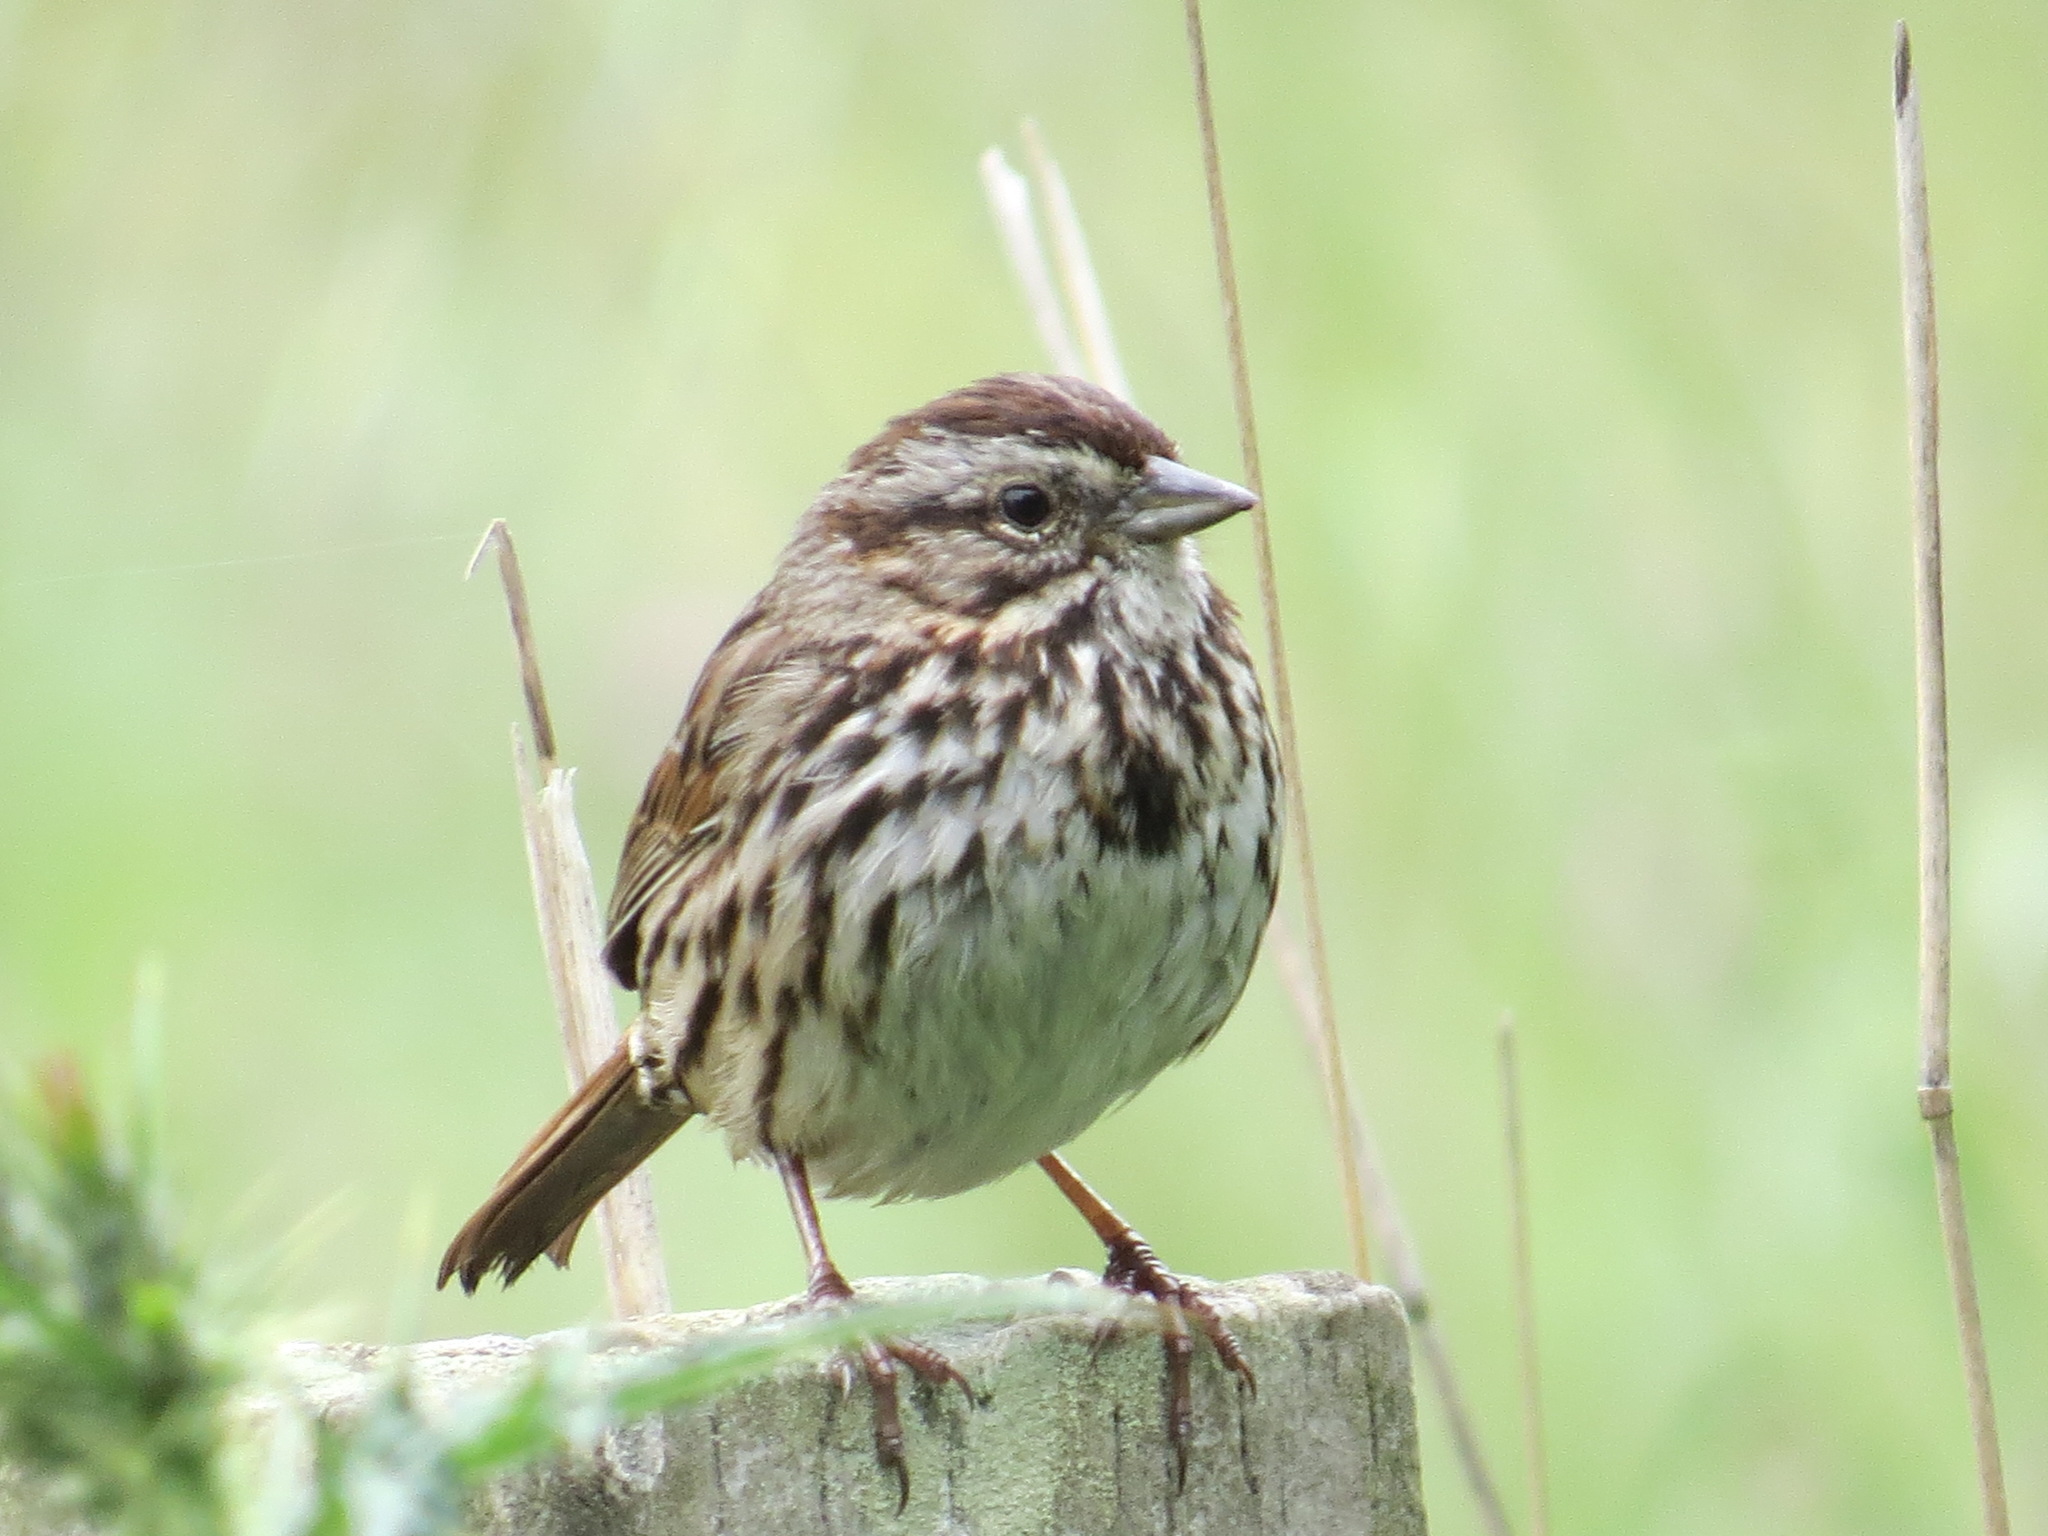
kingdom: Animalia
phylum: Chordata
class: Aves
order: Passeriformes
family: Passerellidae
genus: Melospiza
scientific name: Melospiza melodia
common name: Song sparrow
